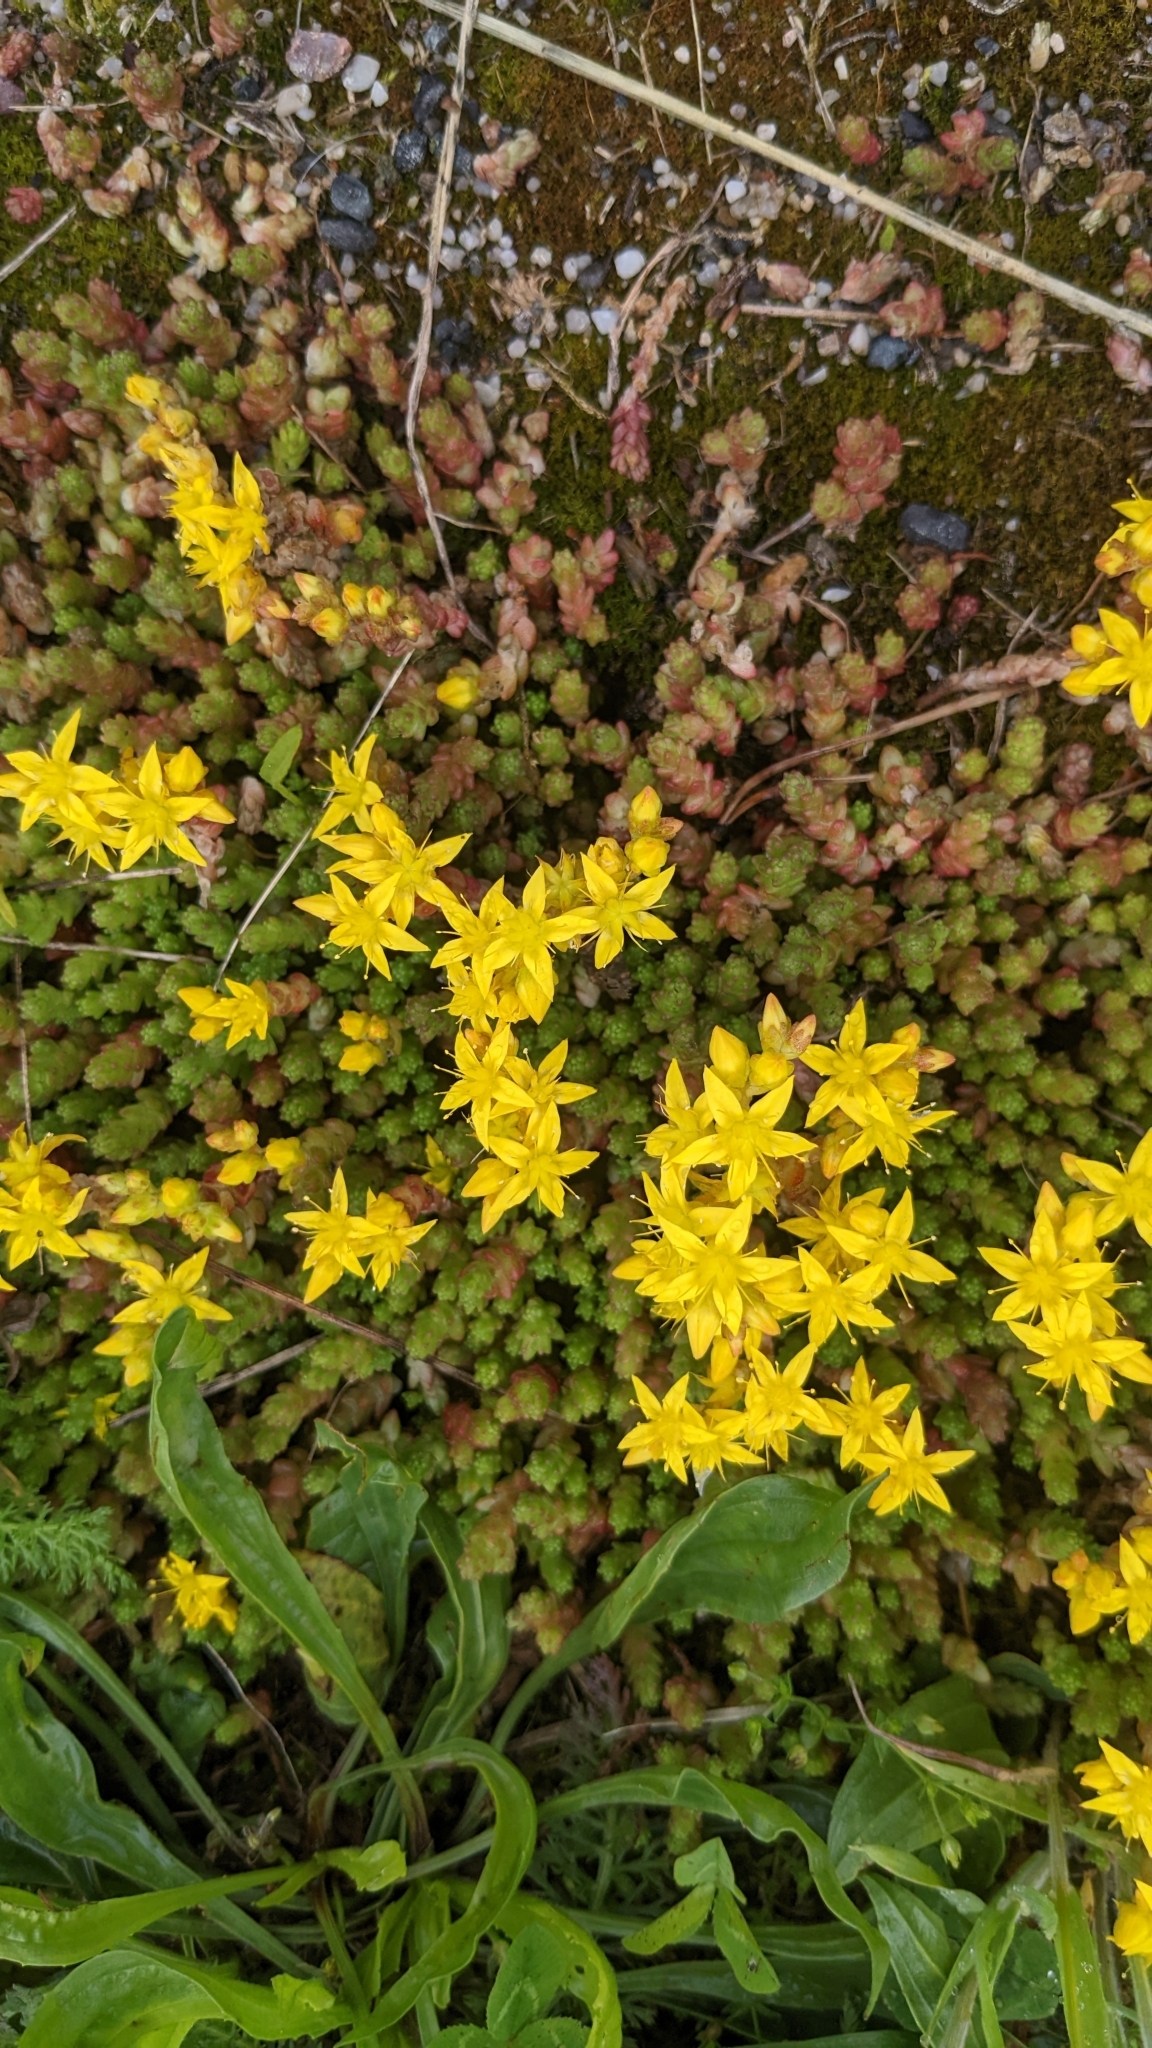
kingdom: Plantae
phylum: Tracheophyta
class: Magnoliopsida
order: Saxifragales
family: Crassulaceae
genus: Sedum
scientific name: Sedum acre
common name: Biting stonecrop
